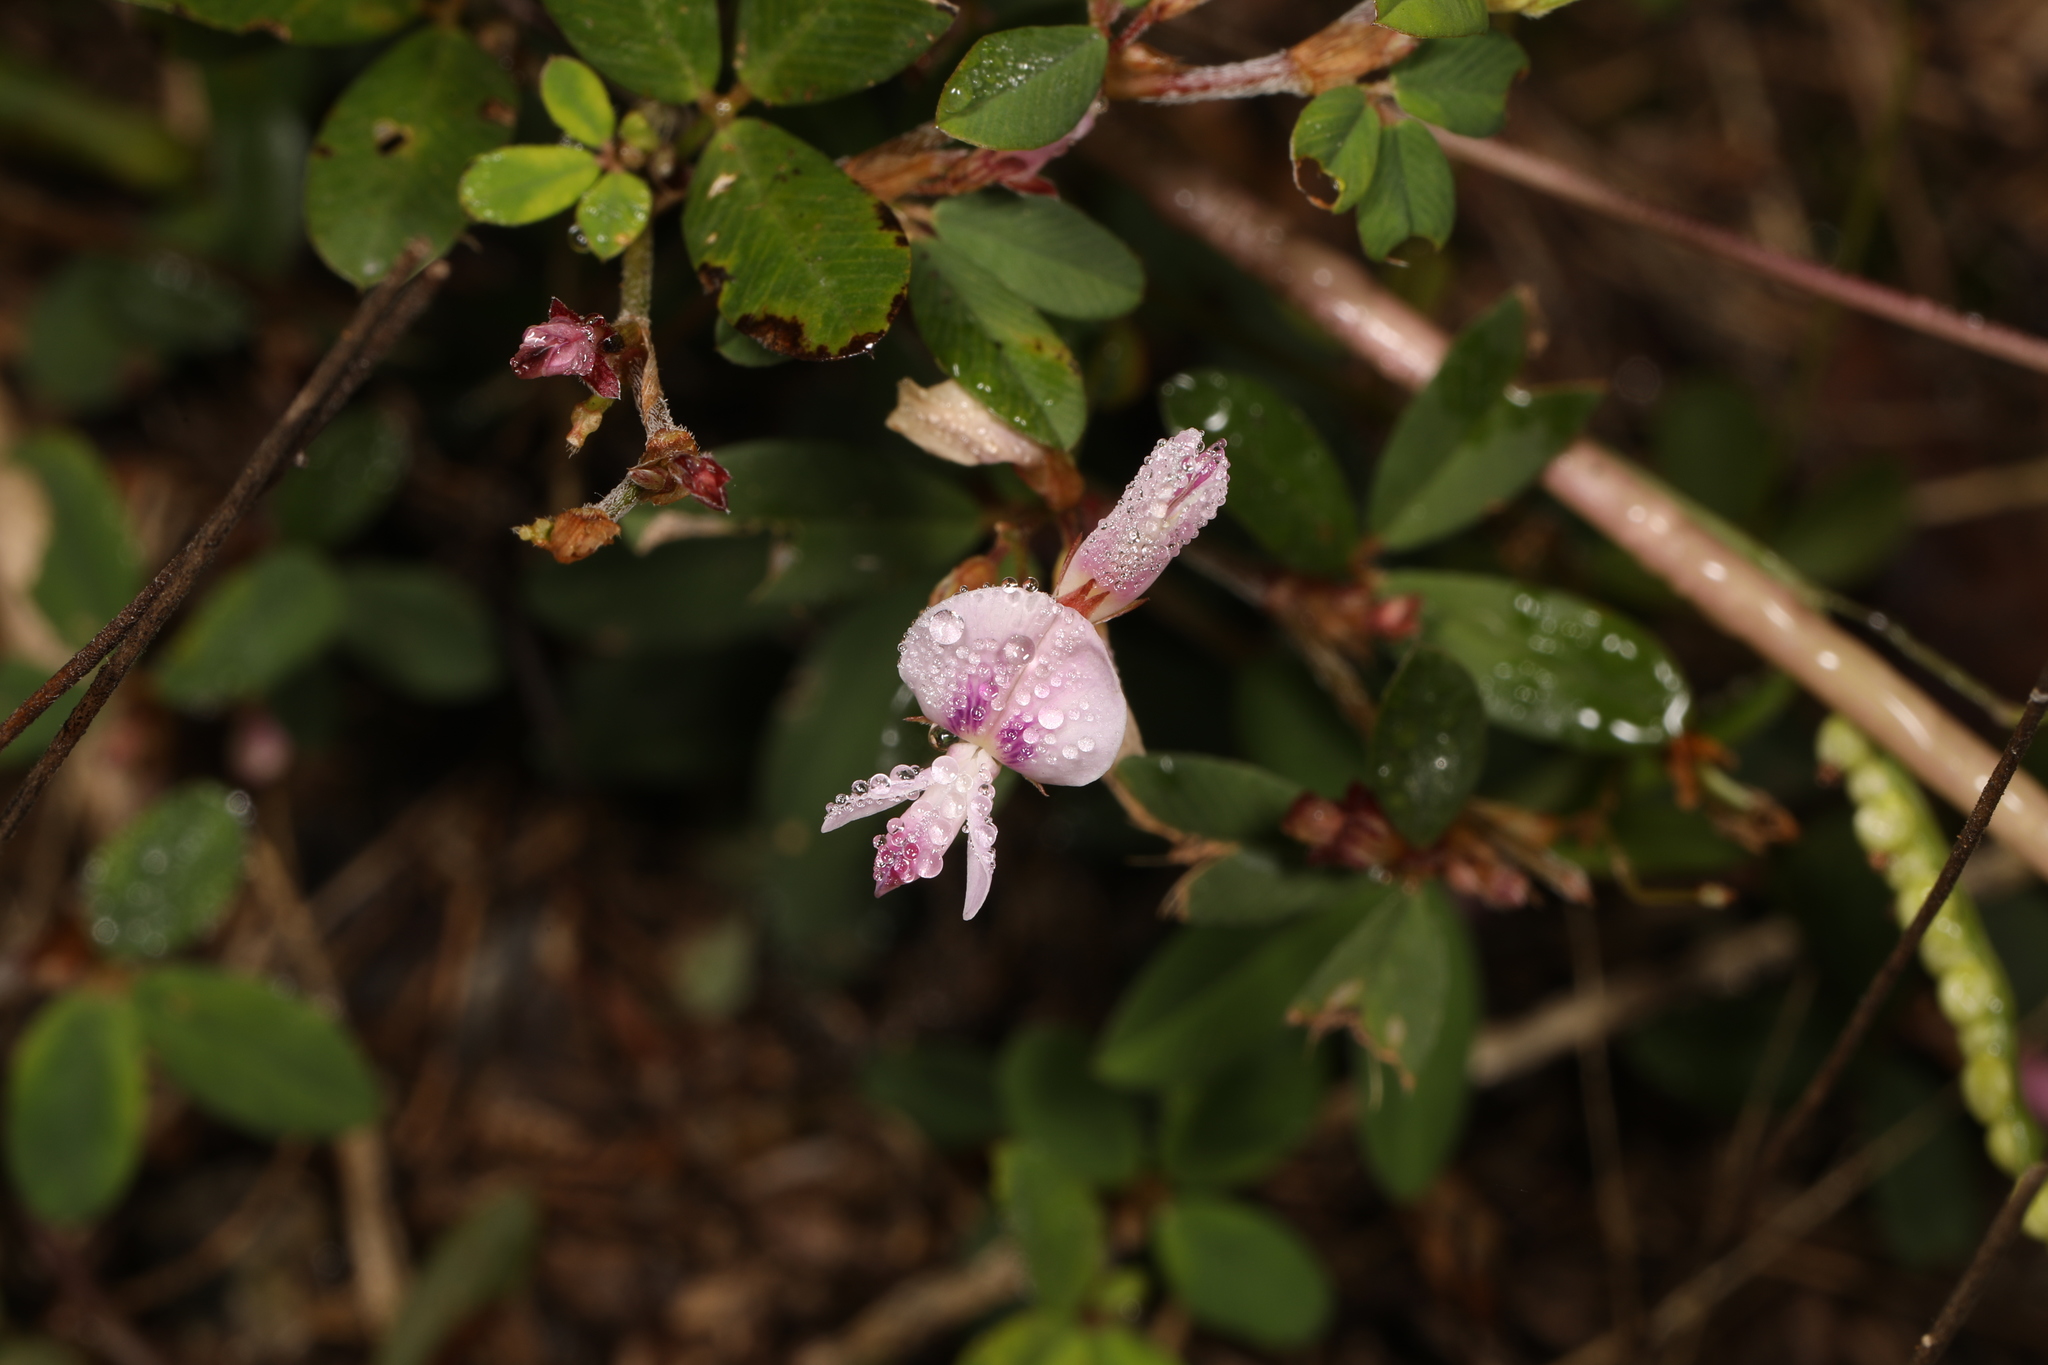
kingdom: Plantae
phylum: Tracheophyta
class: Magnoliopsida
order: Fabales
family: Fabaceae
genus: Kummerowia
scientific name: Kummerowia striata
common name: Japanese clover
